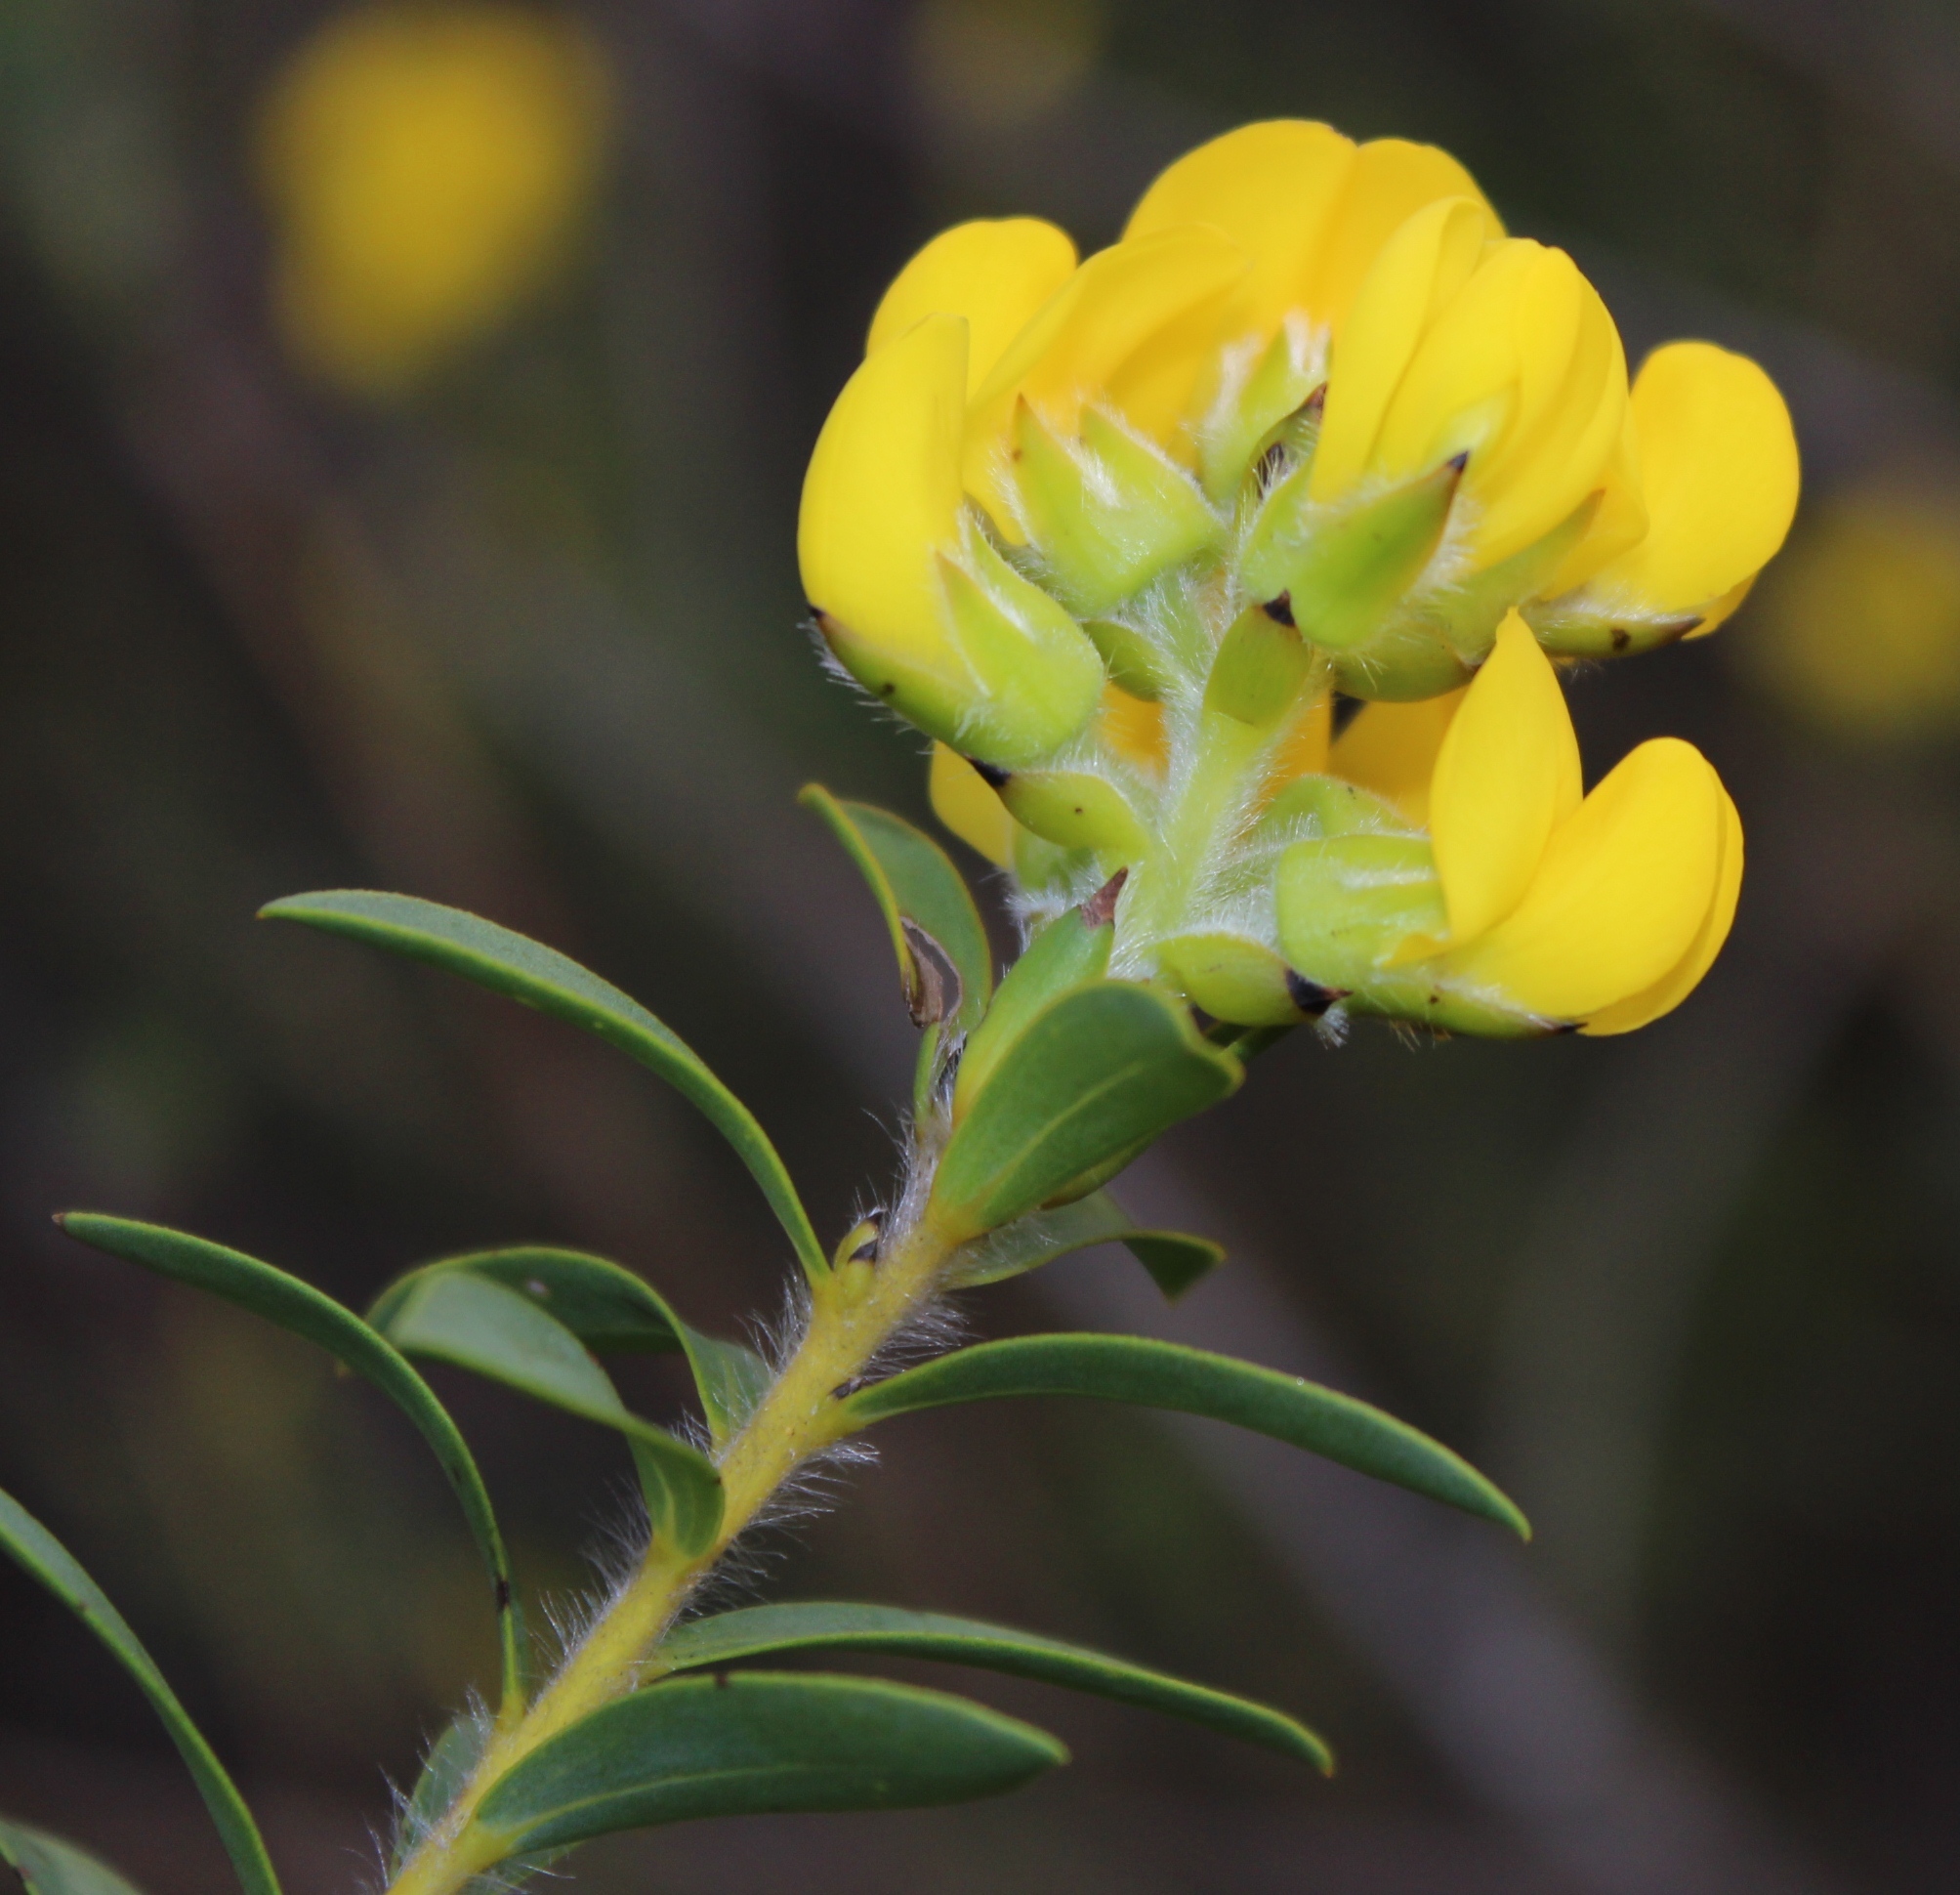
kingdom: Plantae
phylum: Tracheophyta
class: Magnoliopsida
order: Fabales
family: Fabaceae
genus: Liparia
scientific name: Liparia hirsuta
